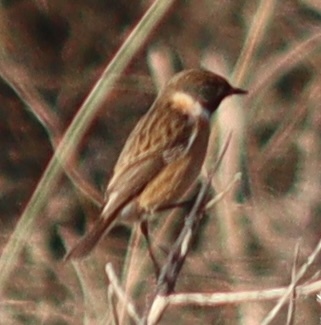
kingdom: Animalia
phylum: Chordata
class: Aves
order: Passeriformes
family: Muscicapidae
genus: Saxicola
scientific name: Saxicola rubicola
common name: European stonechat
